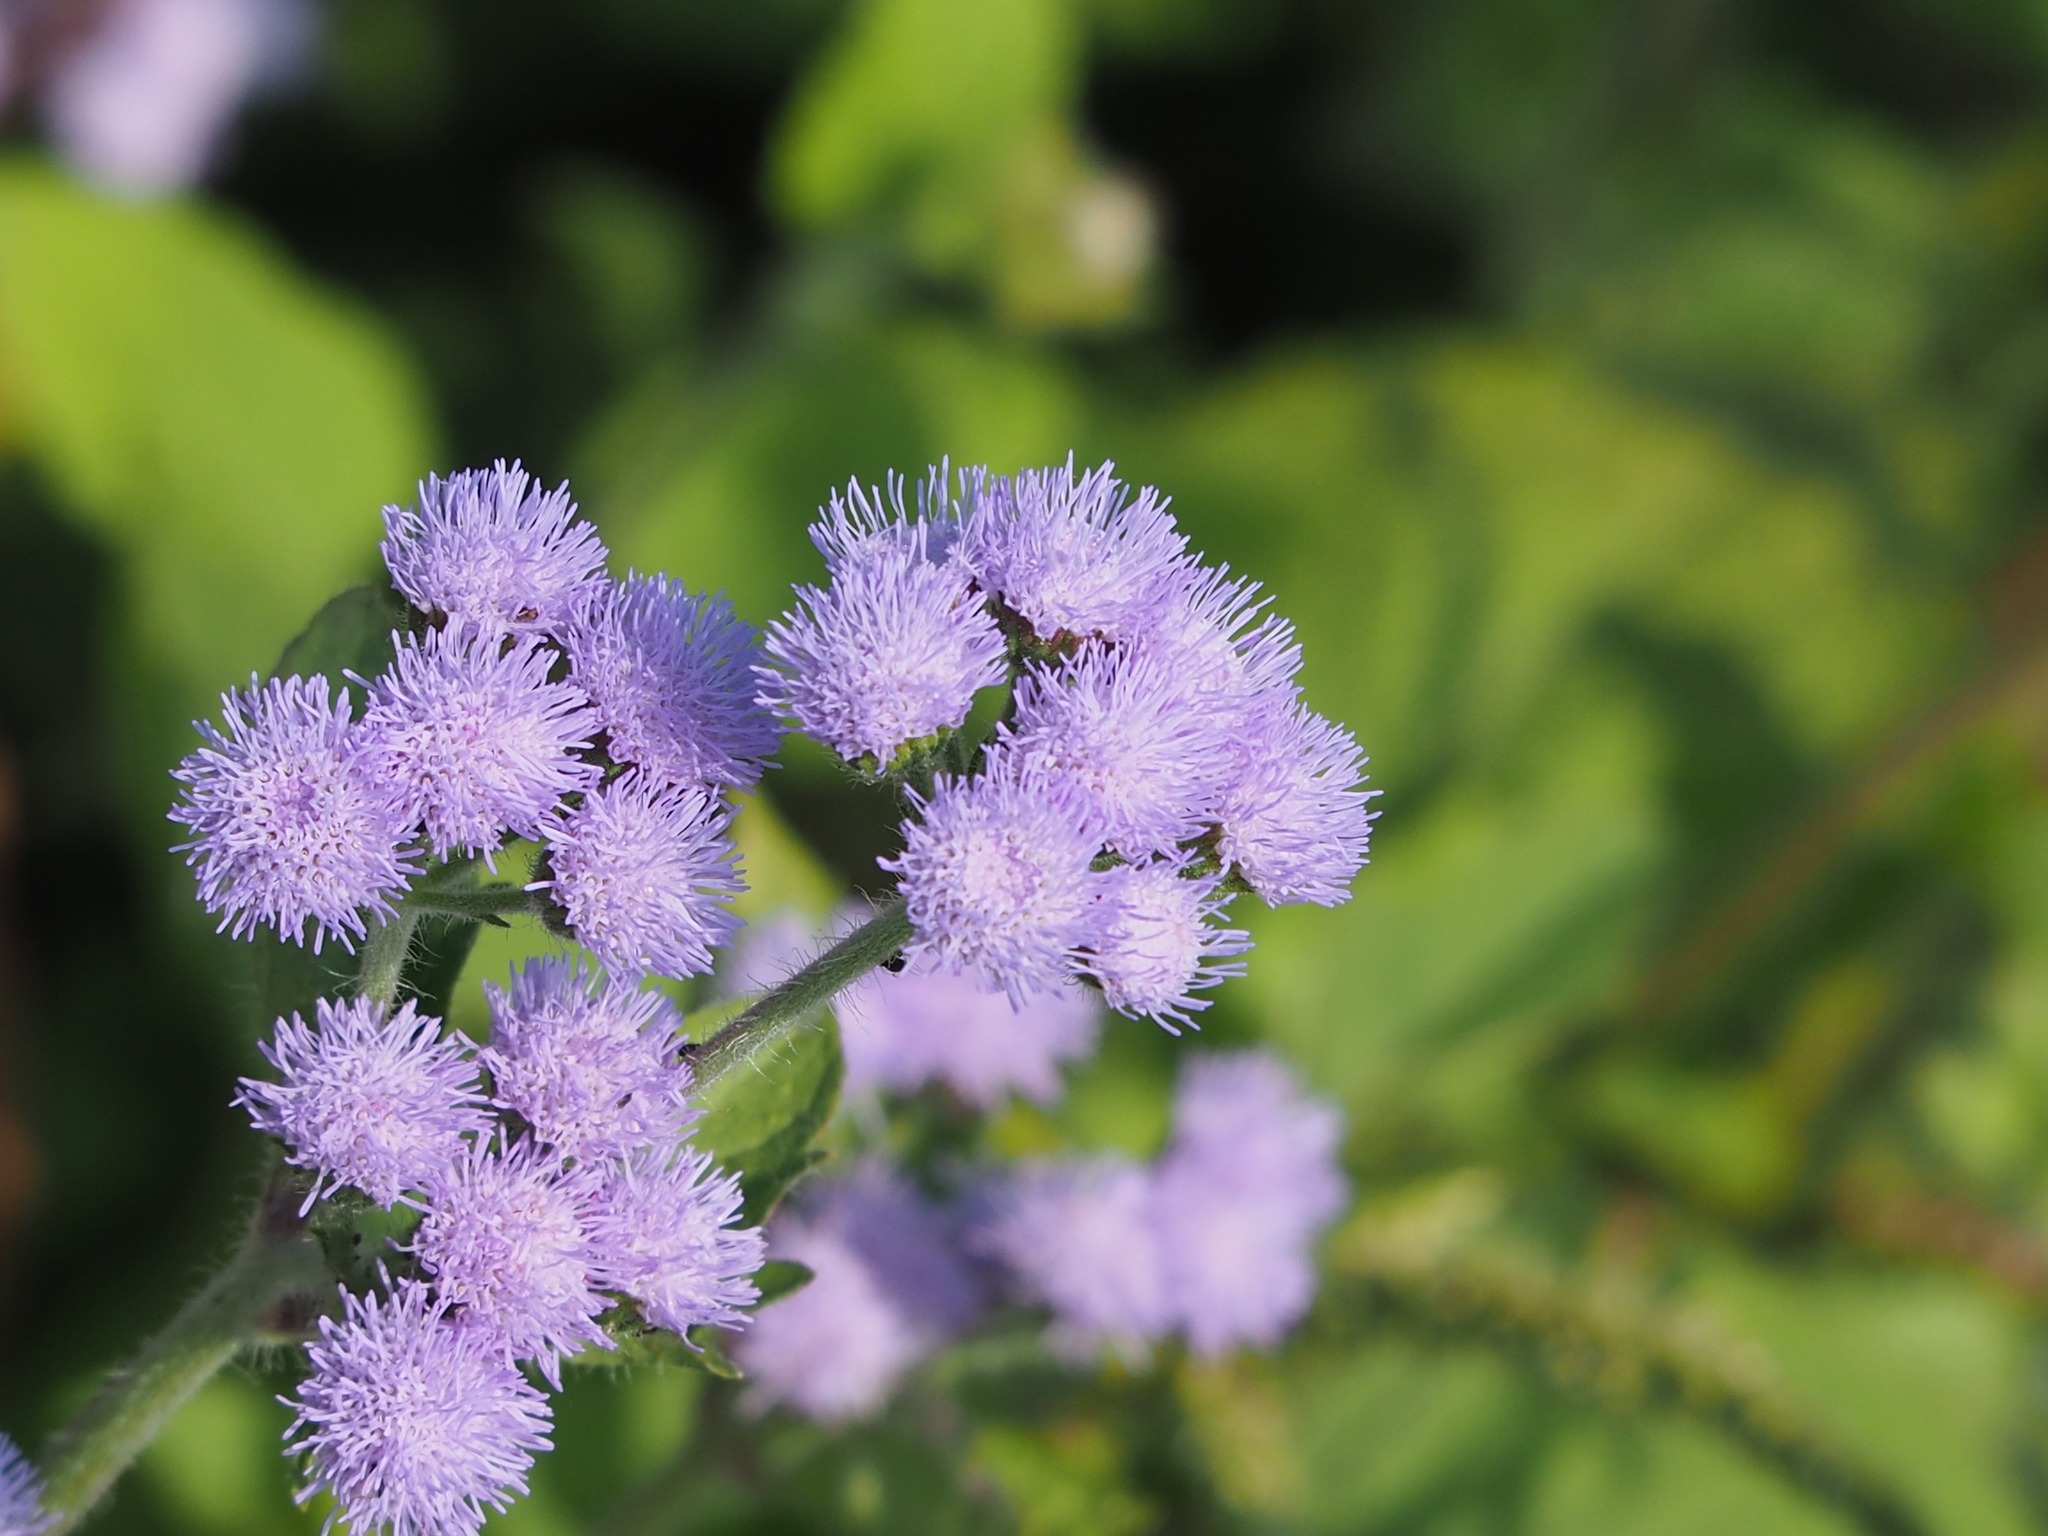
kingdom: Plantae
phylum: Tracheophyta
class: Magnoliopsida
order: Asterales
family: Asteraceae
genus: Ageratum
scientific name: Ageratum houstonianum
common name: Bluemink
